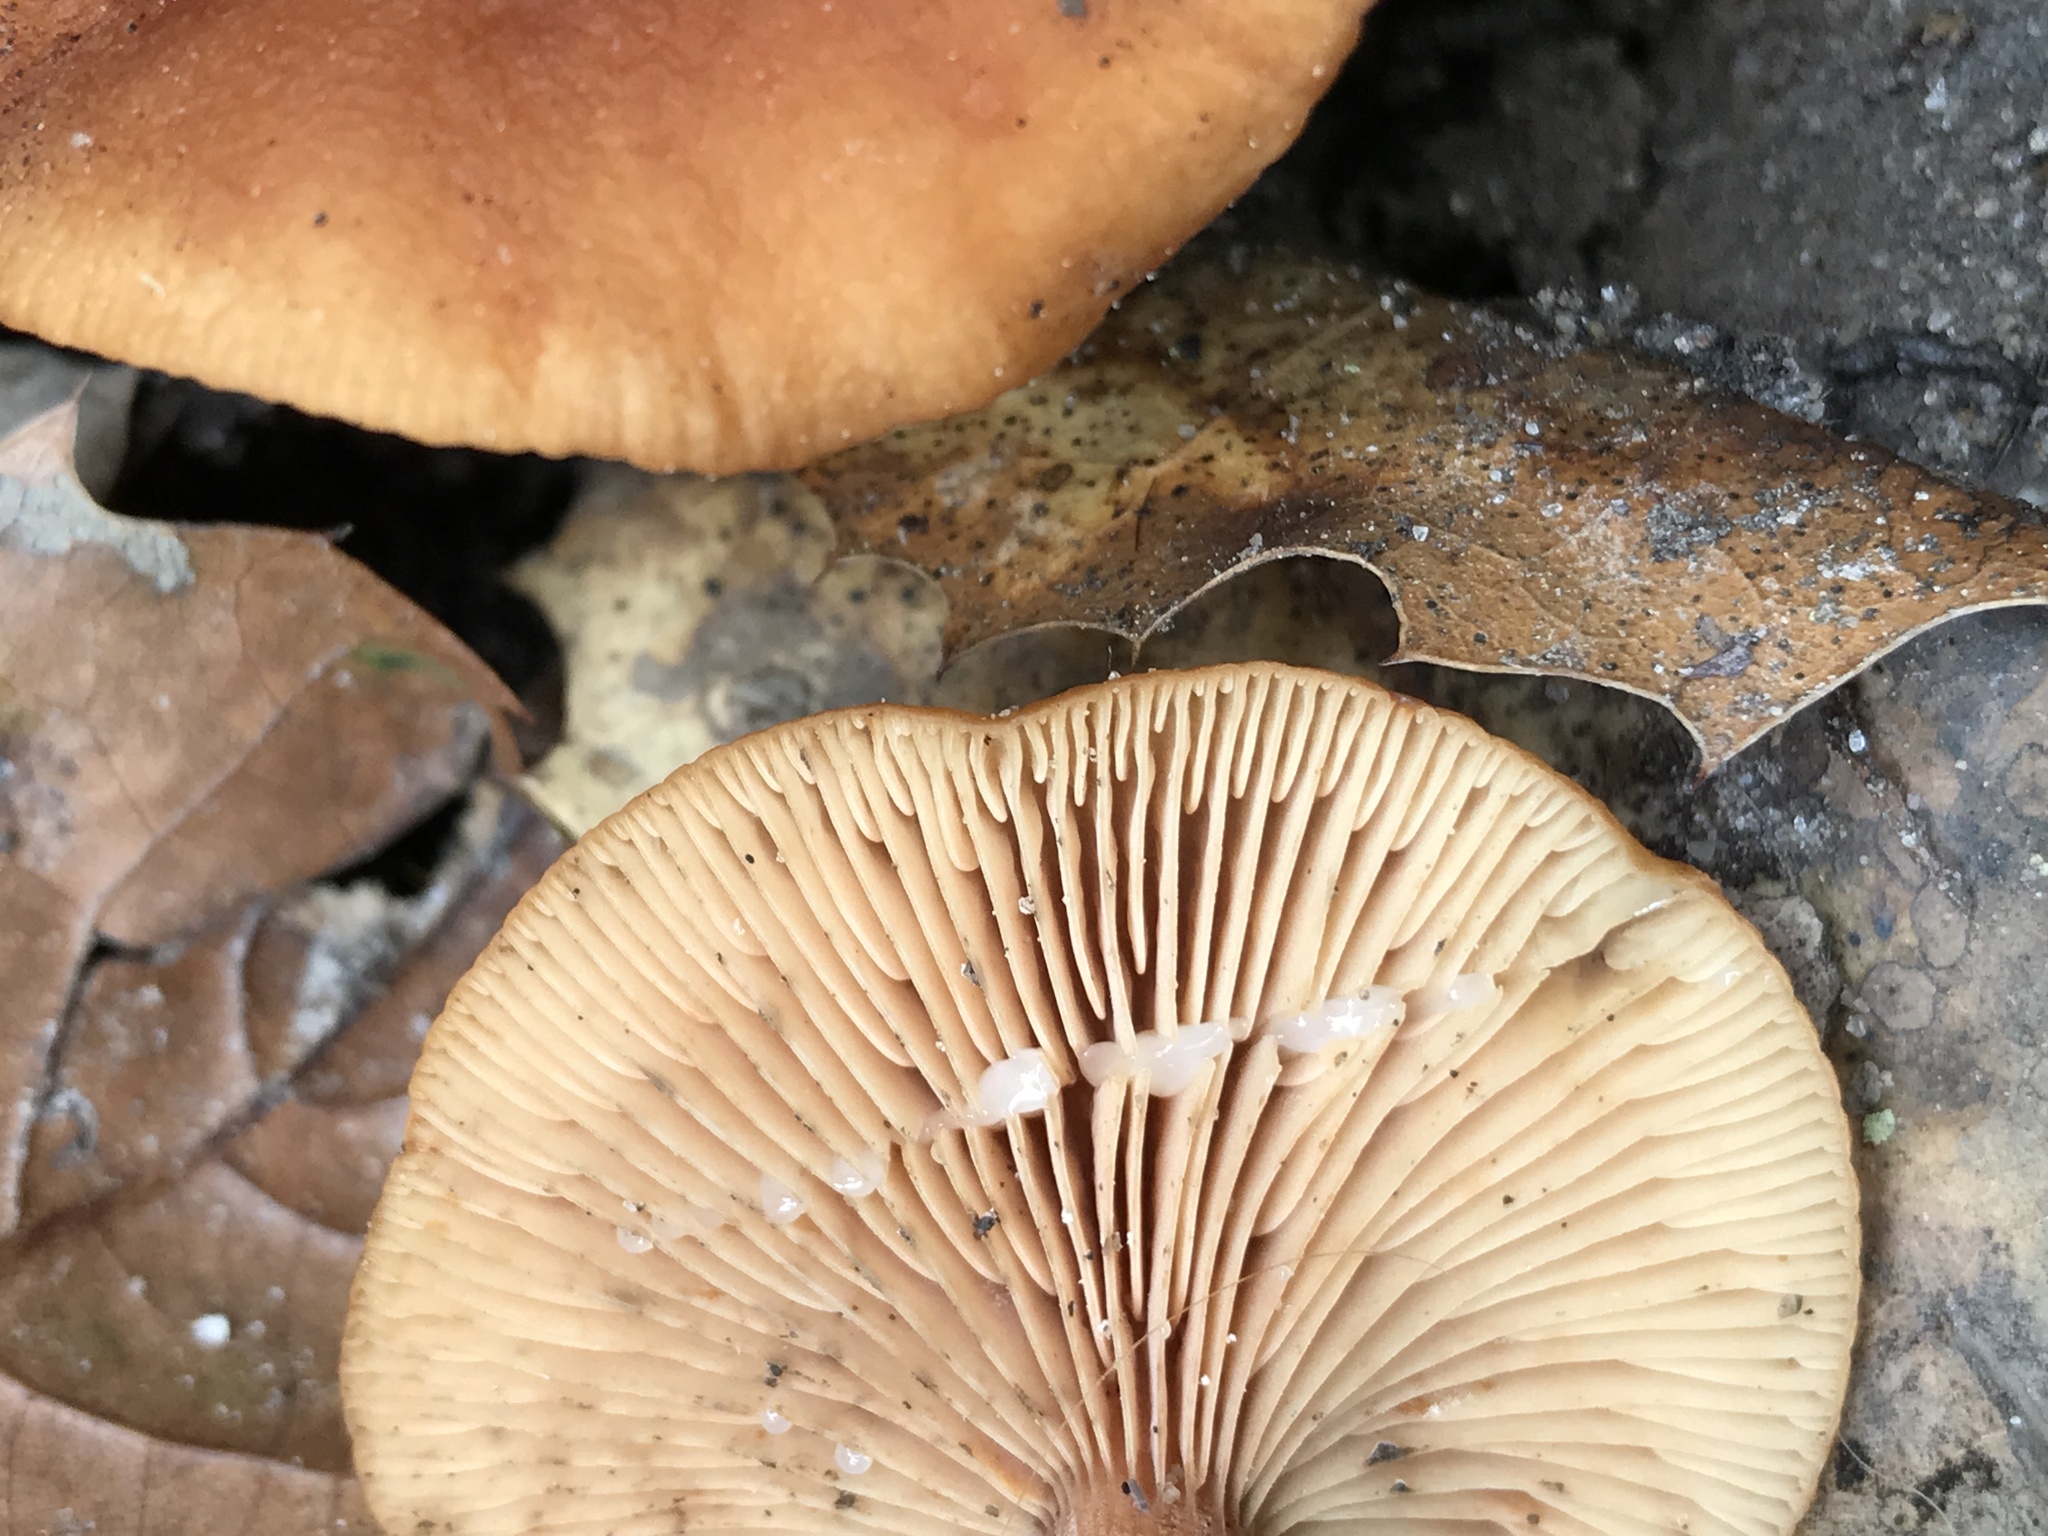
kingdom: Fungi
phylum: Basidiomycota
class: Agaricomycetes
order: Russulales
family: Russulaceae
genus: Lactarius
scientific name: Lactarius rubidus
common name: Candy cap
